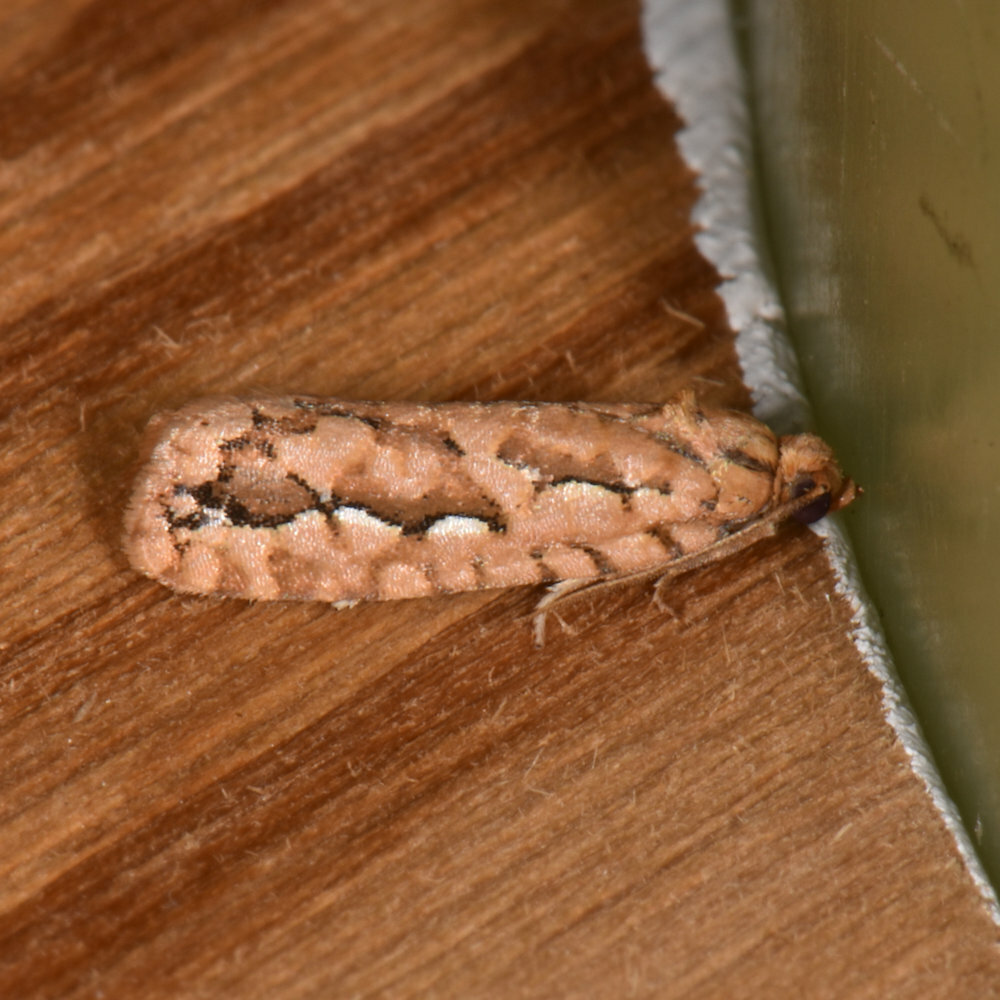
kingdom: Animalia
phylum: Arthropoda
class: Insecta
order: Lepidoptera
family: Tortricidae
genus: Diedra
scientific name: Diedra cockerellana
